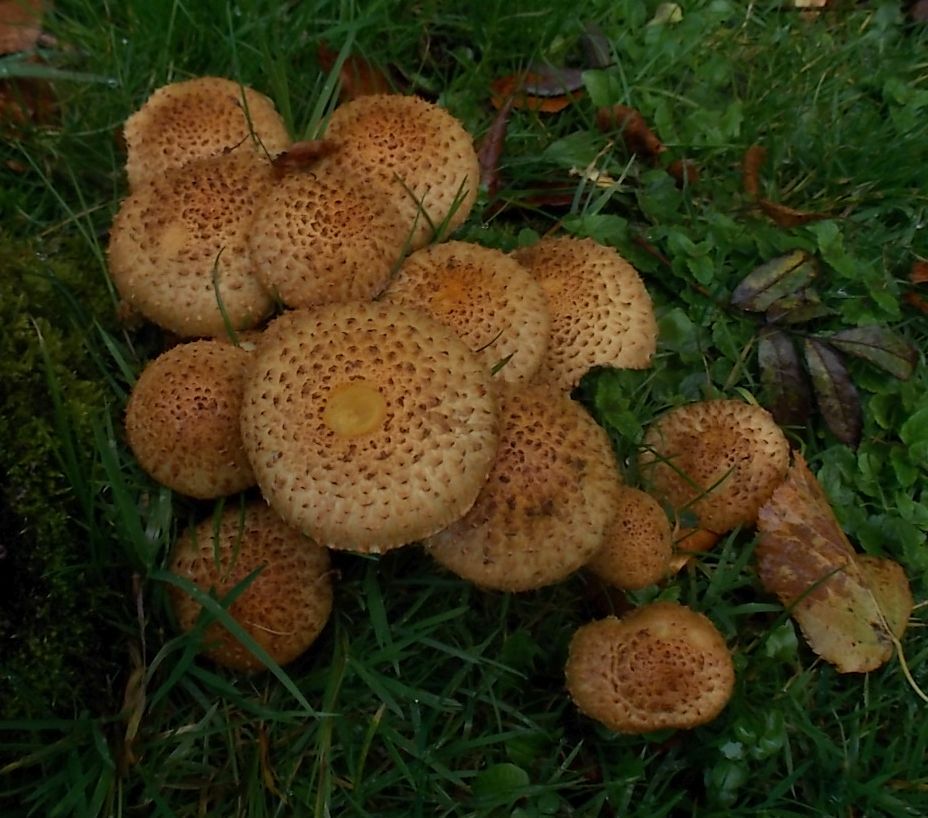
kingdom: Fungi
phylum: Basidiomycota
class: Agaricomycetes
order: Agaricales
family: Strophariaceae
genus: Pholiota
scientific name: Pholiota squarrosa
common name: Shaggy pholiota
